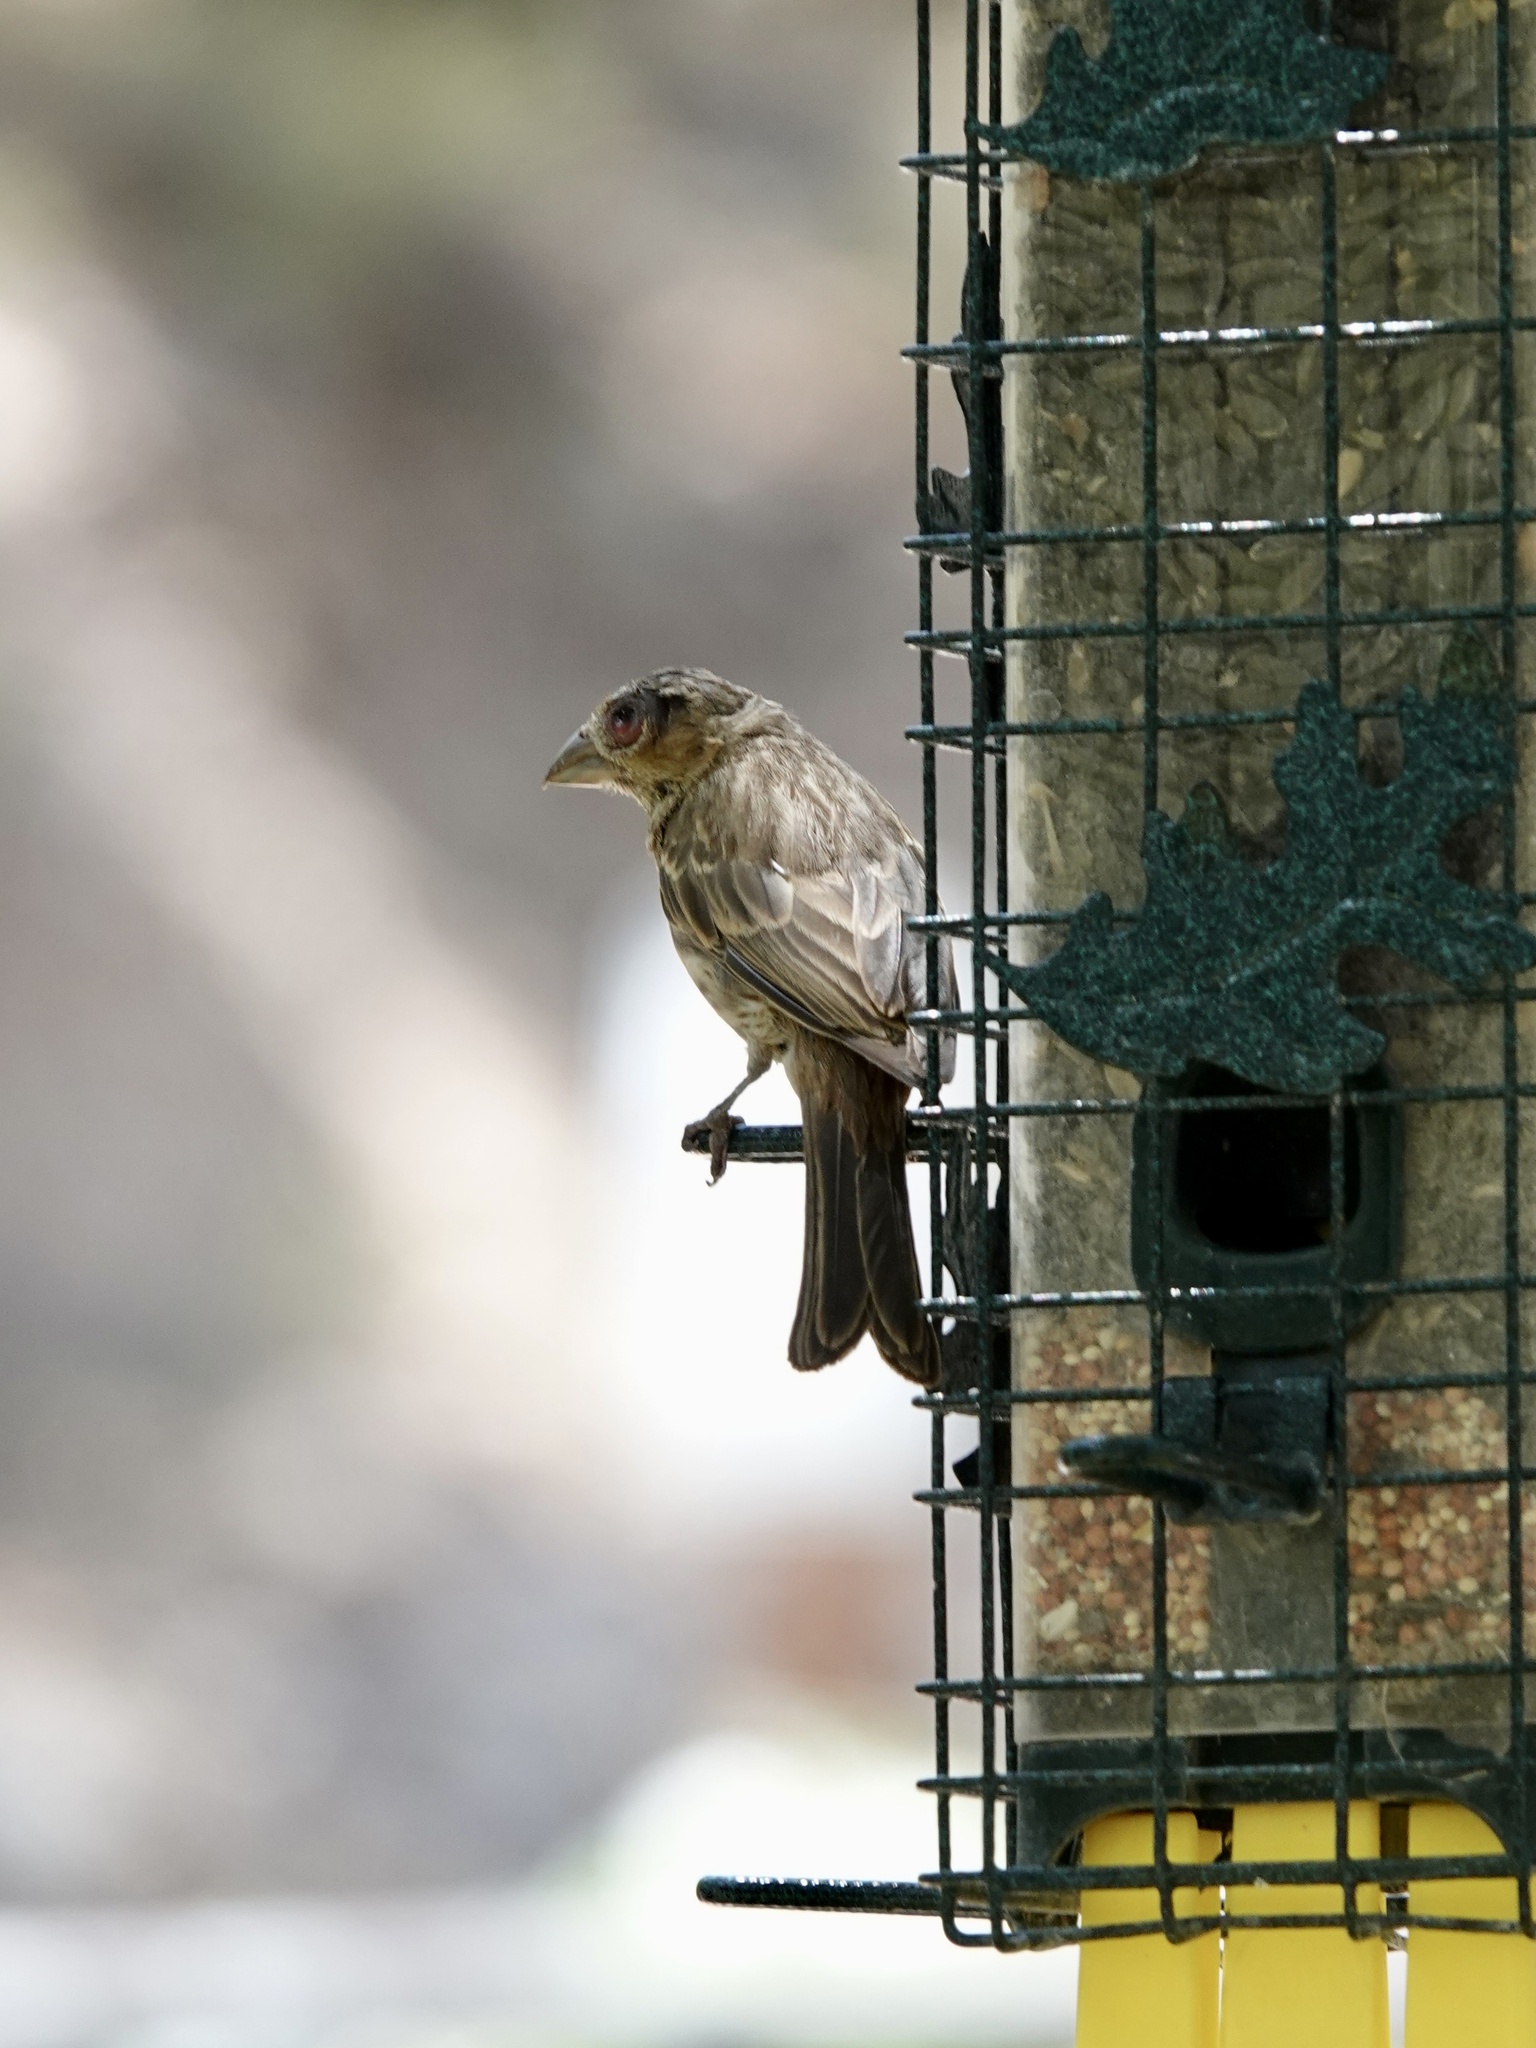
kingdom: Animalia
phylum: Chordata
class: Aves
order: Passeriformes
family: Fringillidae
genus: Haemorhous
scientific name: Haemorhous mexicanus
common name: House finch
